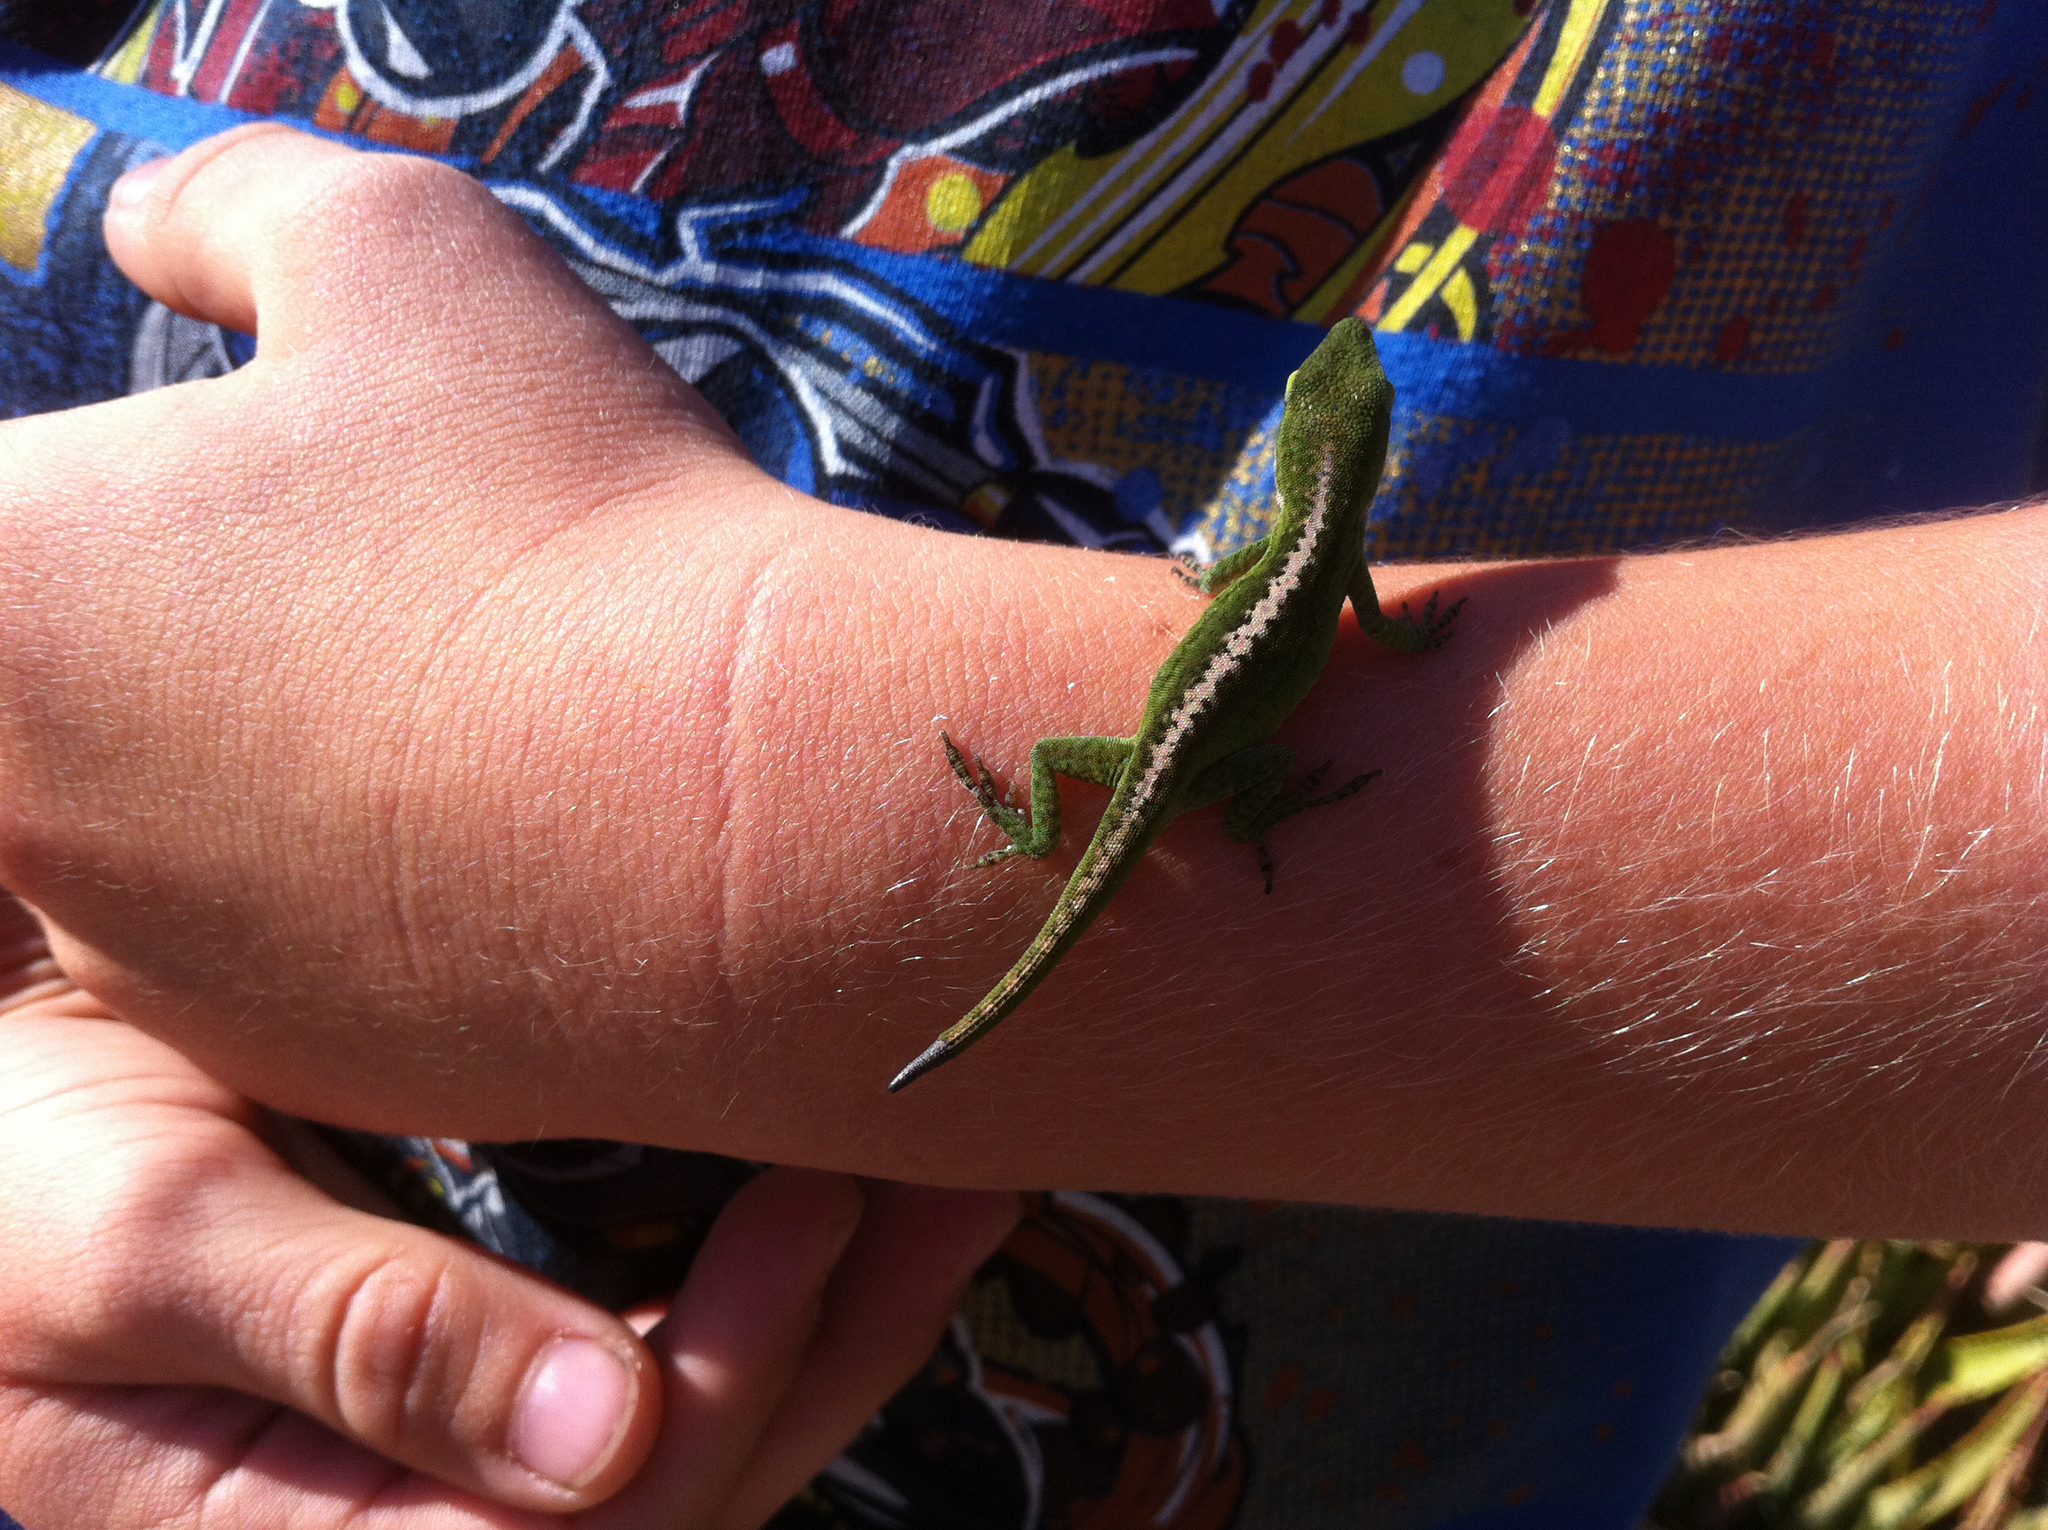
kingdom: Animalia
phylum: Chordata
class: Squamata
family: Dactyloidae
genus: Anolis
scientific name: Anolis carolinensis
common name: Green anole
